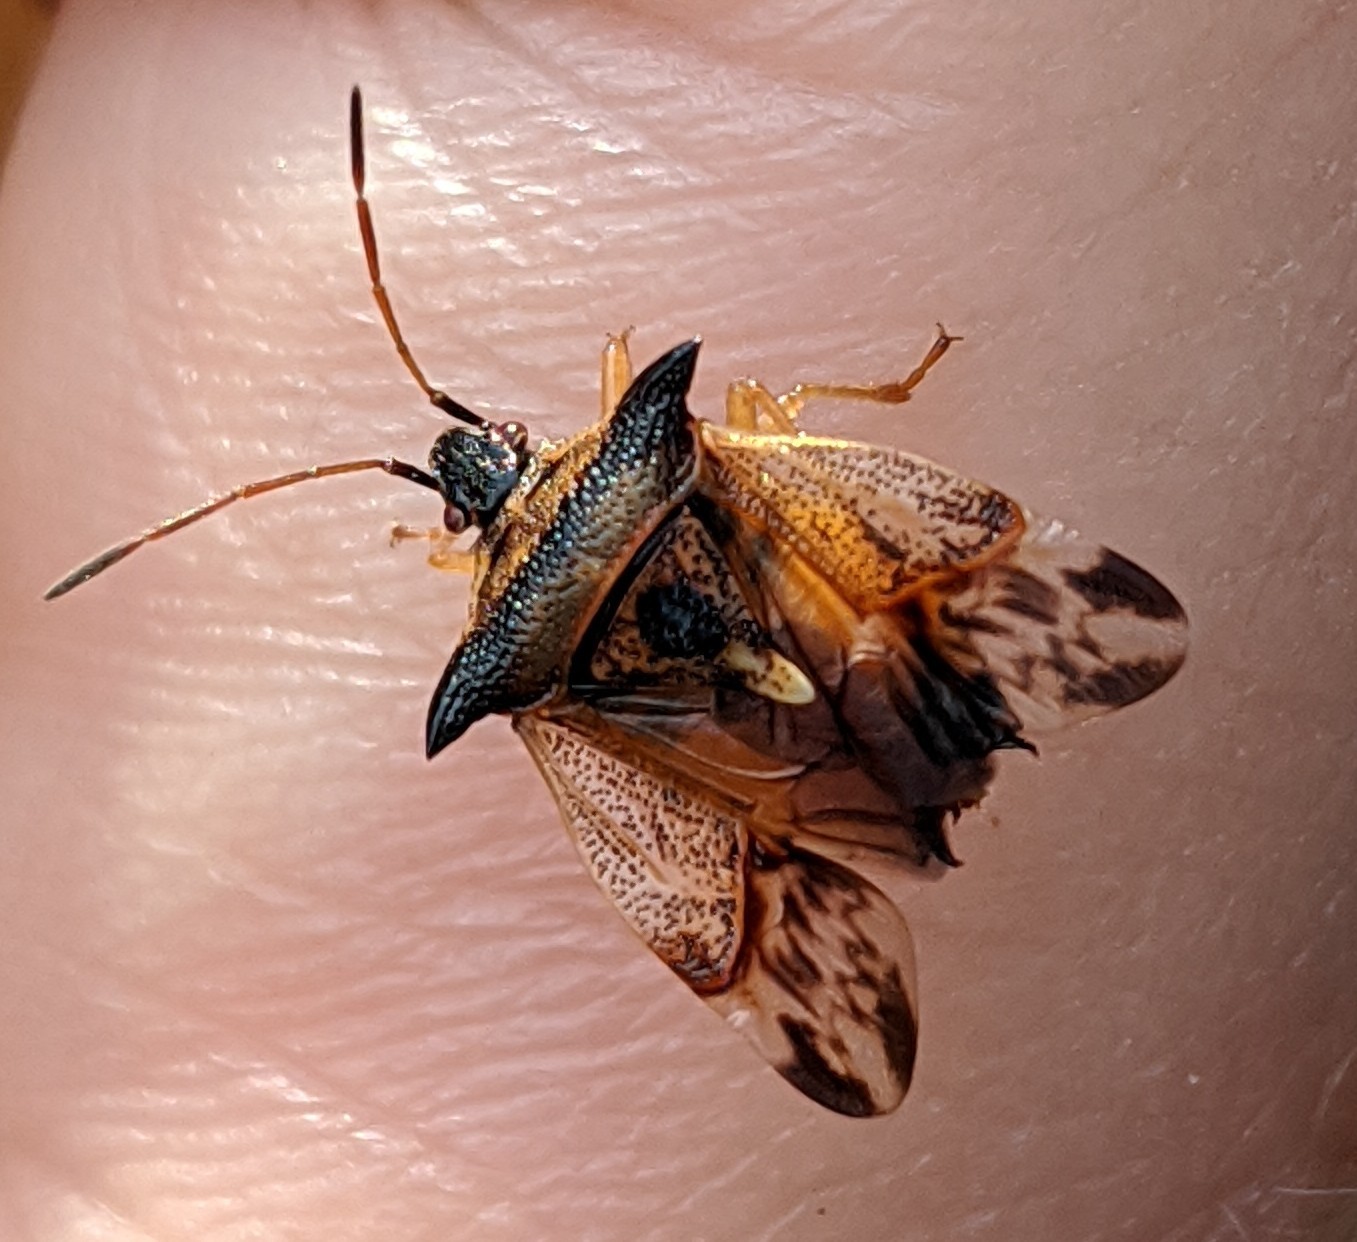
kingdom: Animalia
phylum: Arthropoda
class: Insecta
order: Hemiptera
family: Acanthosomatidae
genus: Elasmucha
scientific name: Elasmucha ferrugata
